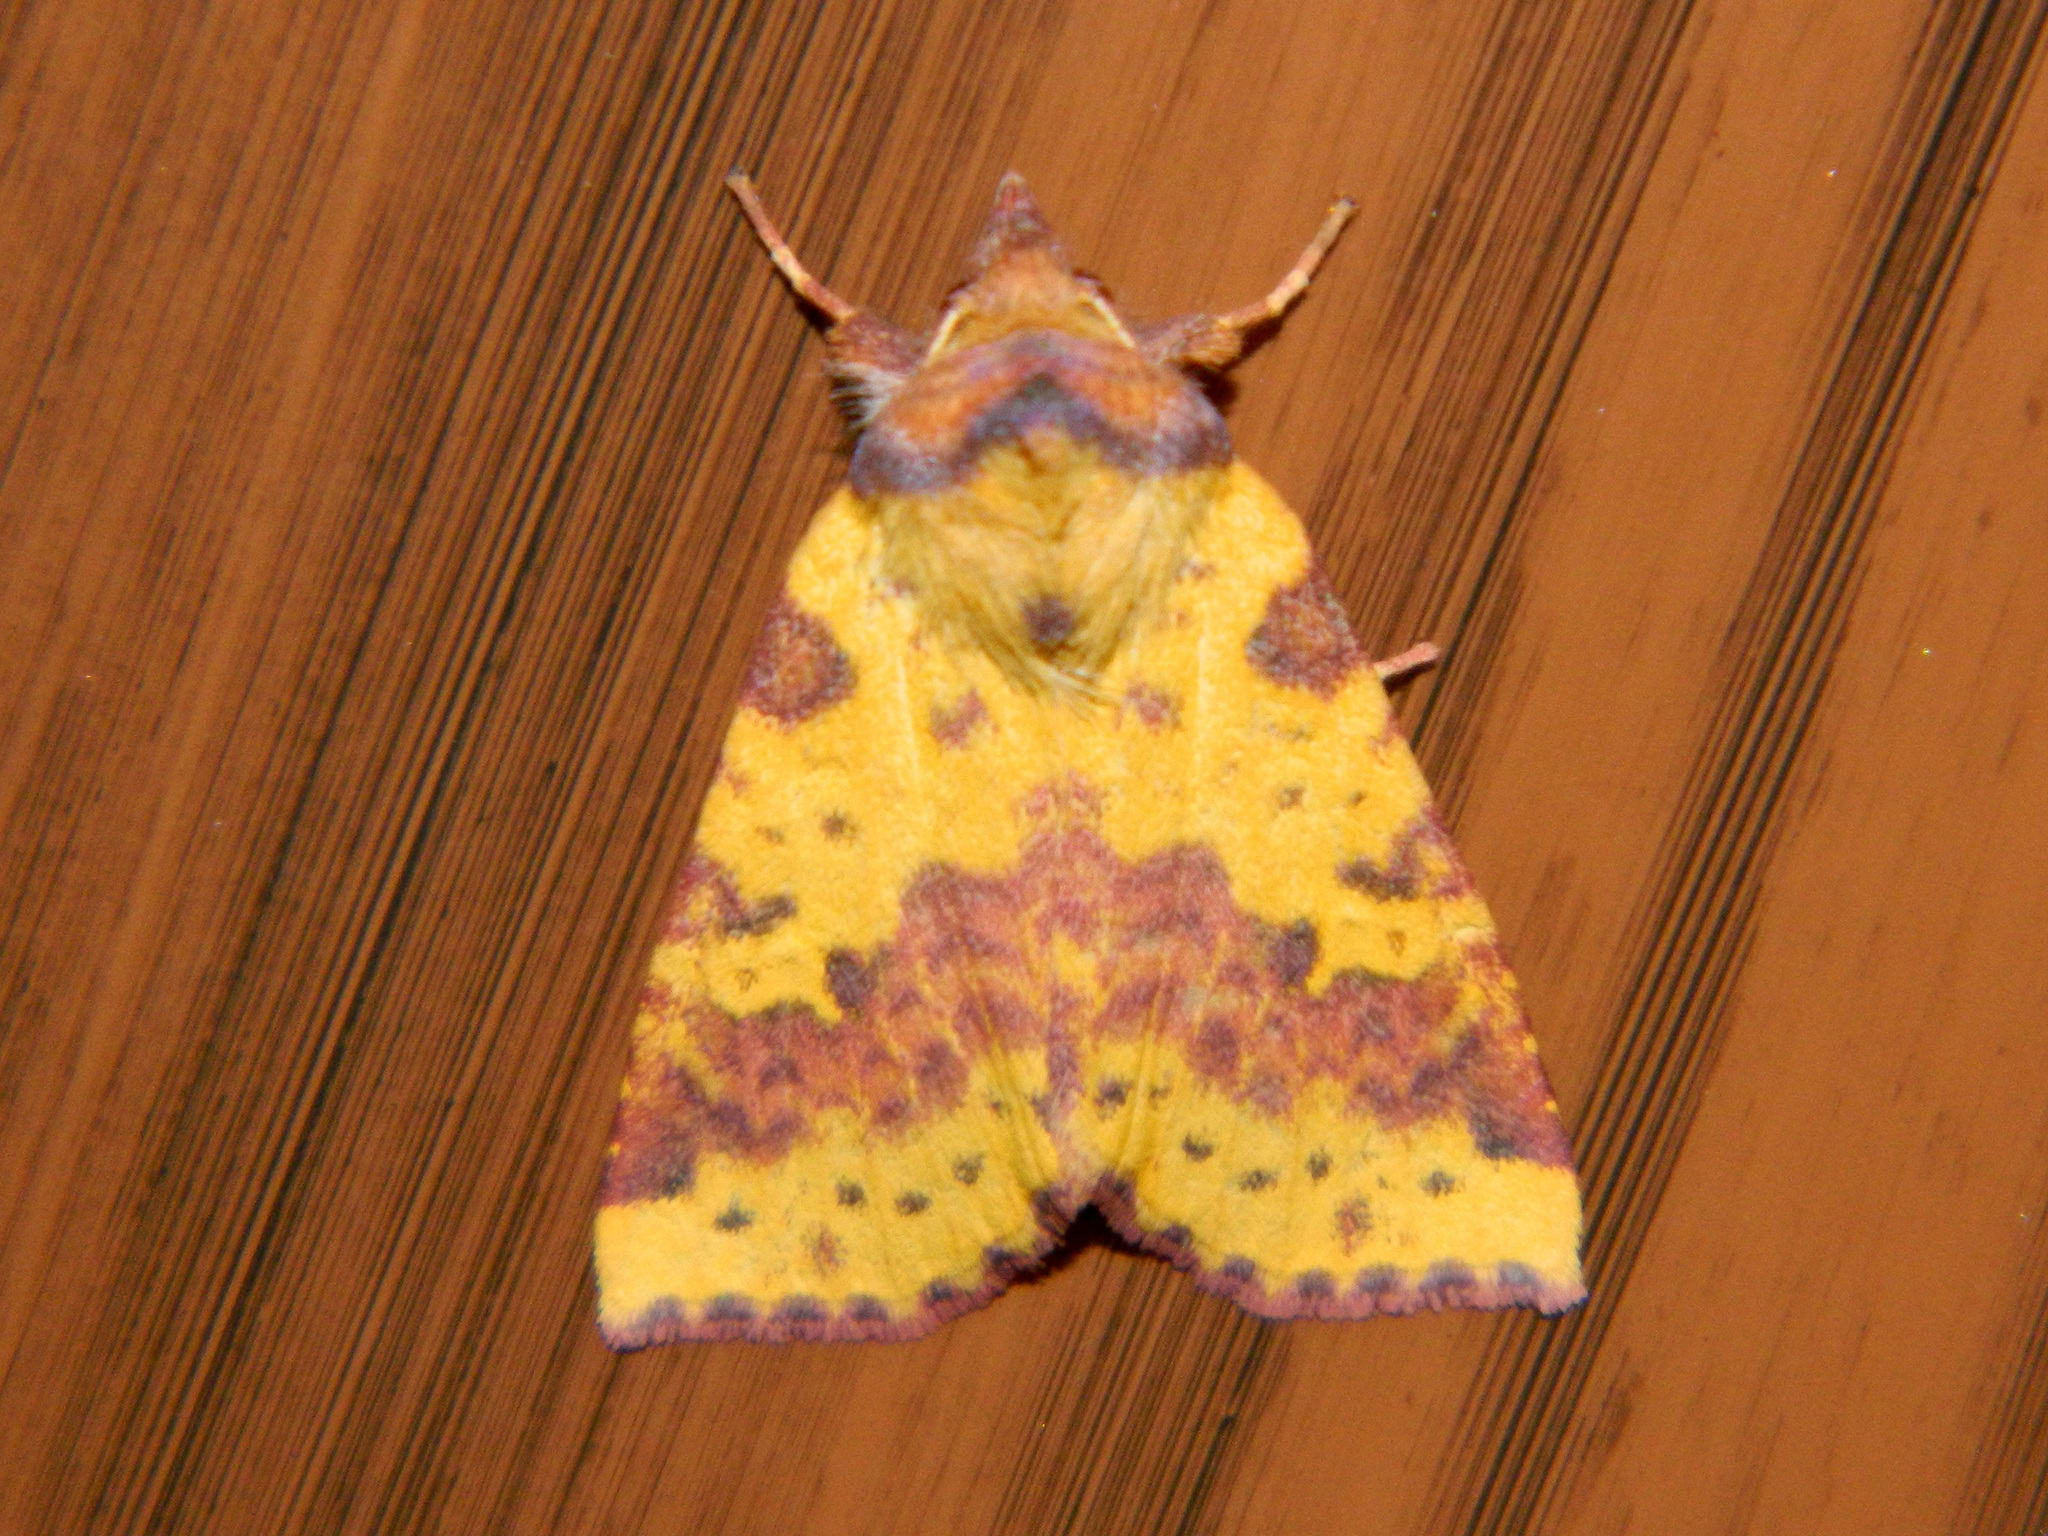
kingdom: Animalia
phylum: Arthropoda
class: Insecta
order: Lepidoptera
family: Noctuidae
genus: Xanthia
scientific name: Xanthia tatago
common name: Pink-banded sallow
